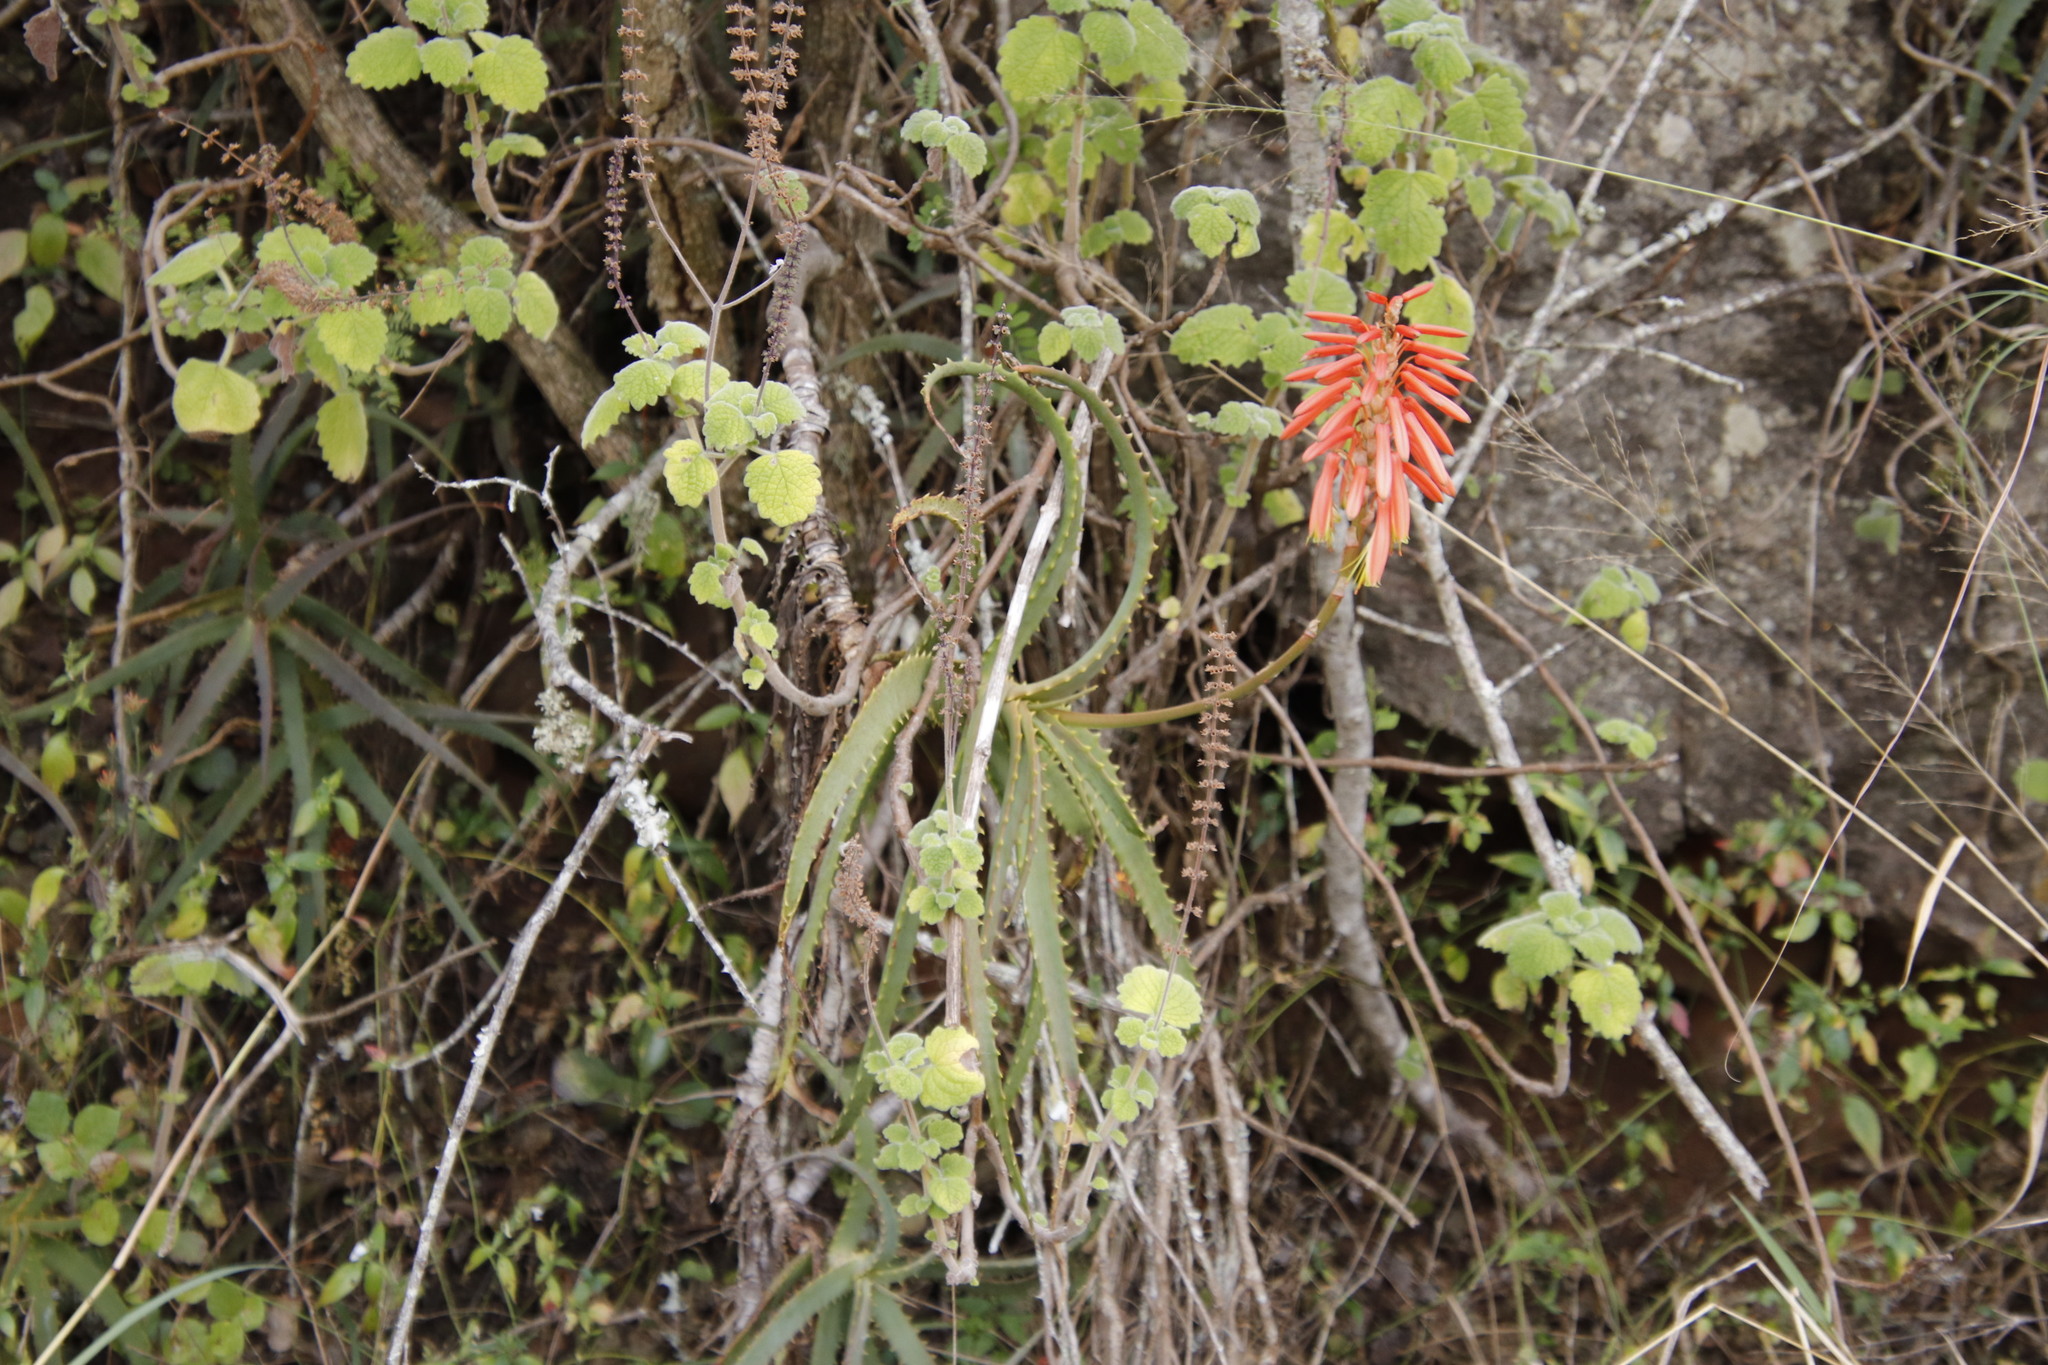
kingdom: Plantae
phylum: Tracheophyta
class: Magnoliopsida
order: Lamiales
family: Lamiaceae
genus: Coleus
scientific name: Coleus grandidentatus
